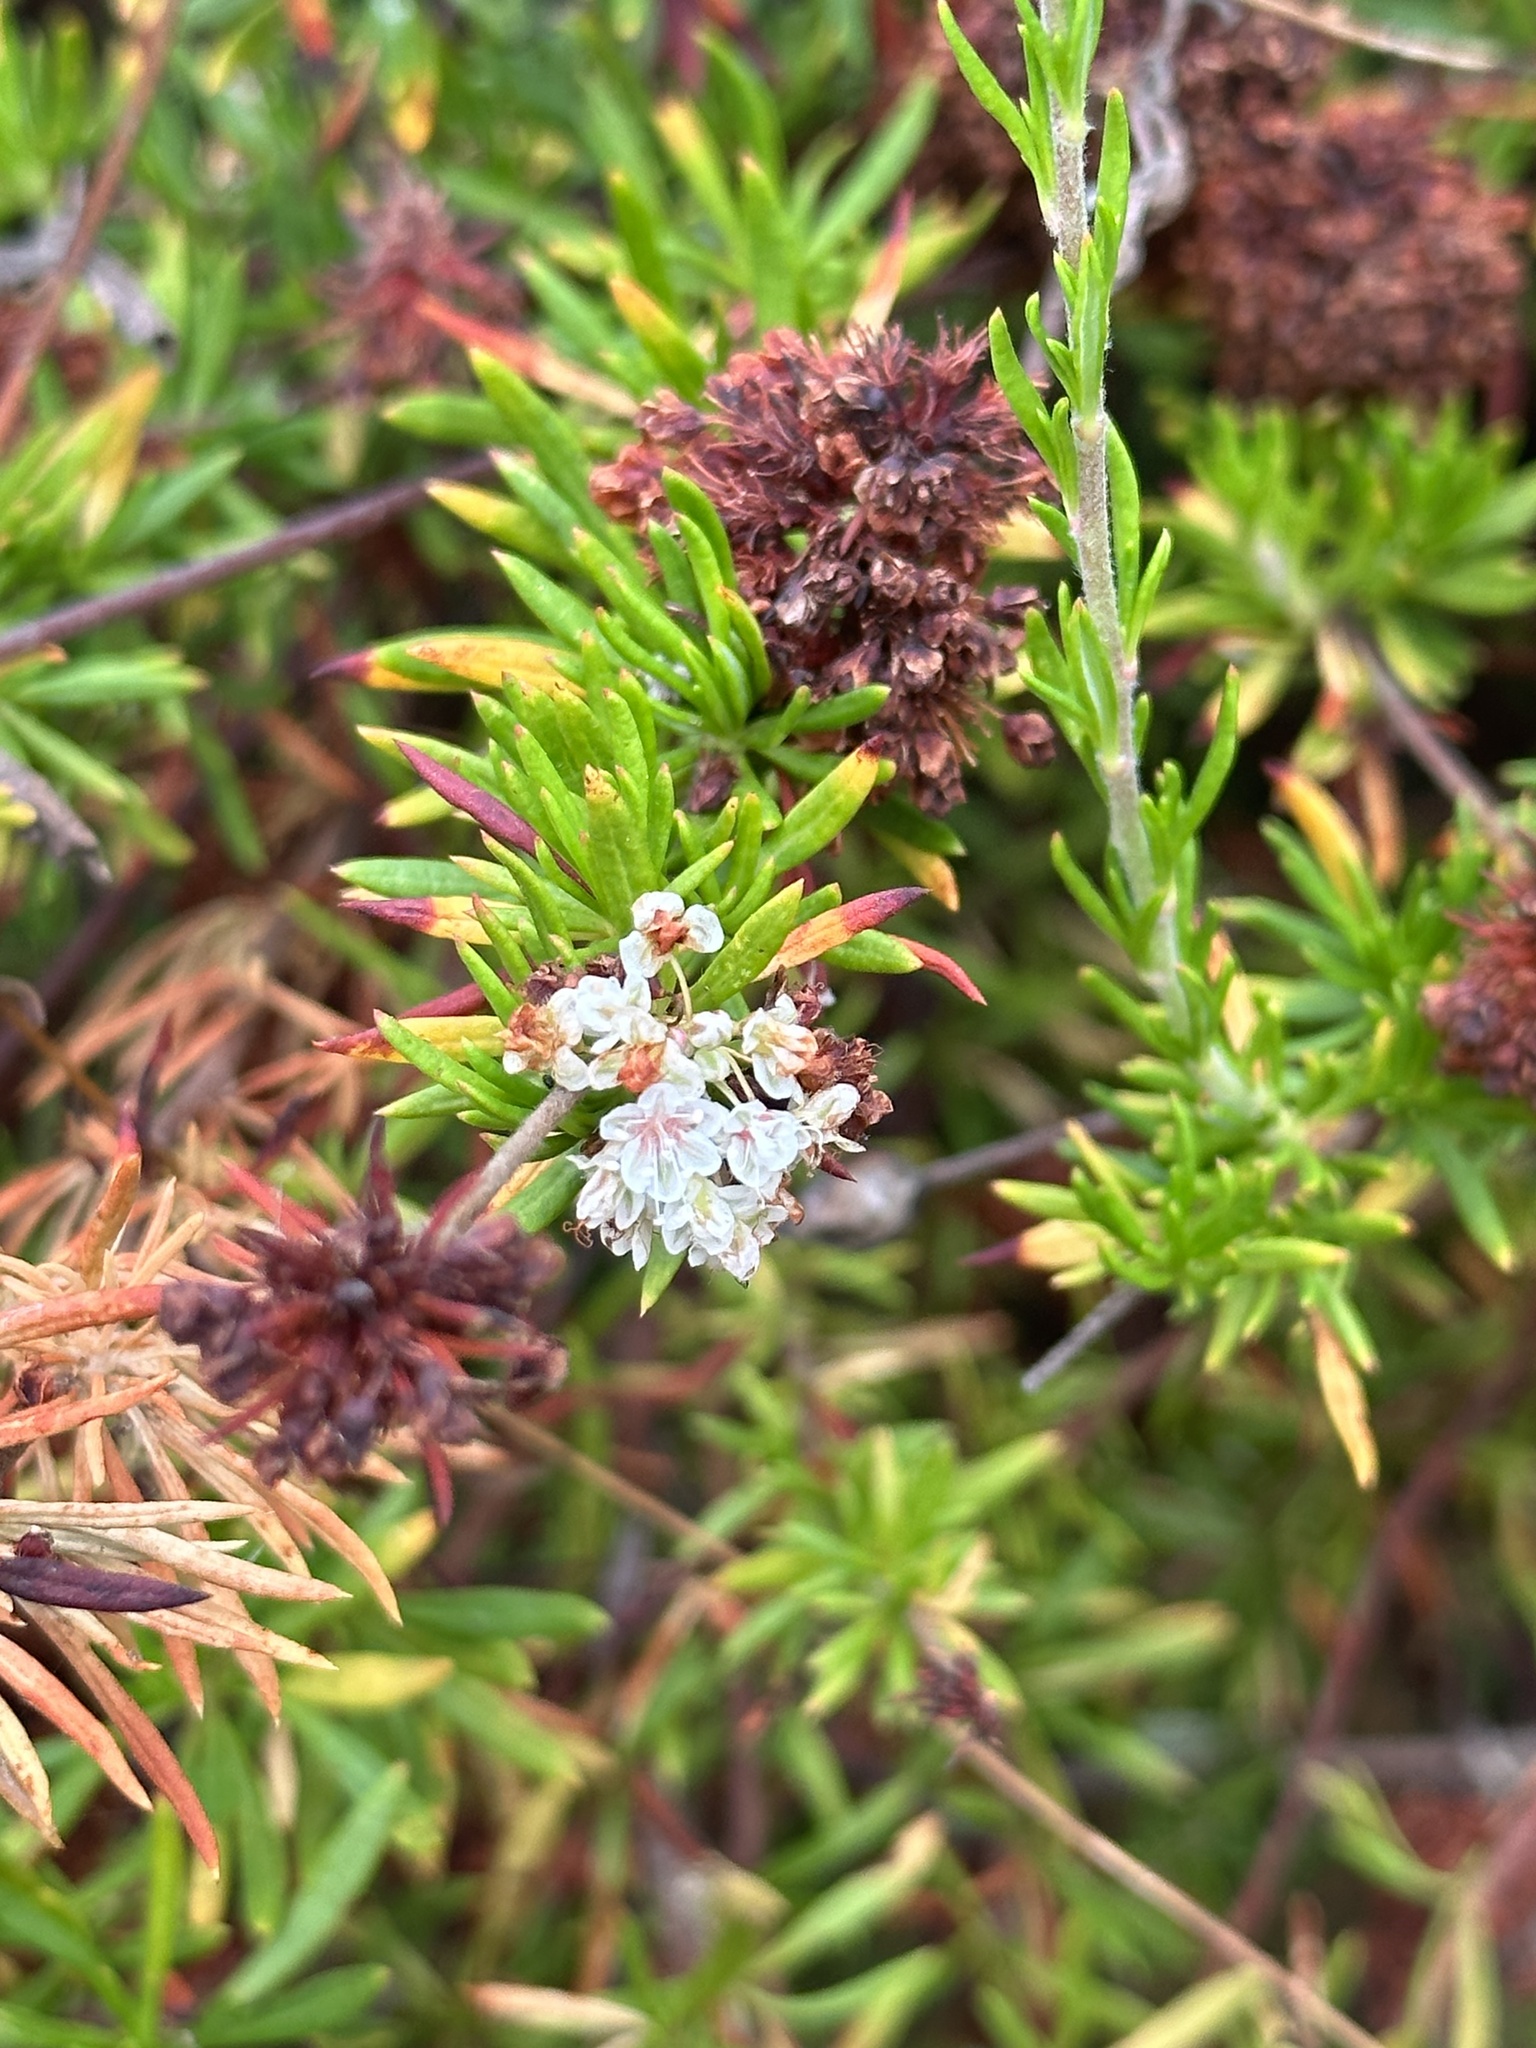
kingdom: Plantae
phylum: Tracheophyta
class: Magnoliopsida
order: Caryophyllales
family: Polygonaceae
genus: Eriogonum
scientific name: Eriogonum fasciculatum
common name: California wild buckwheat
